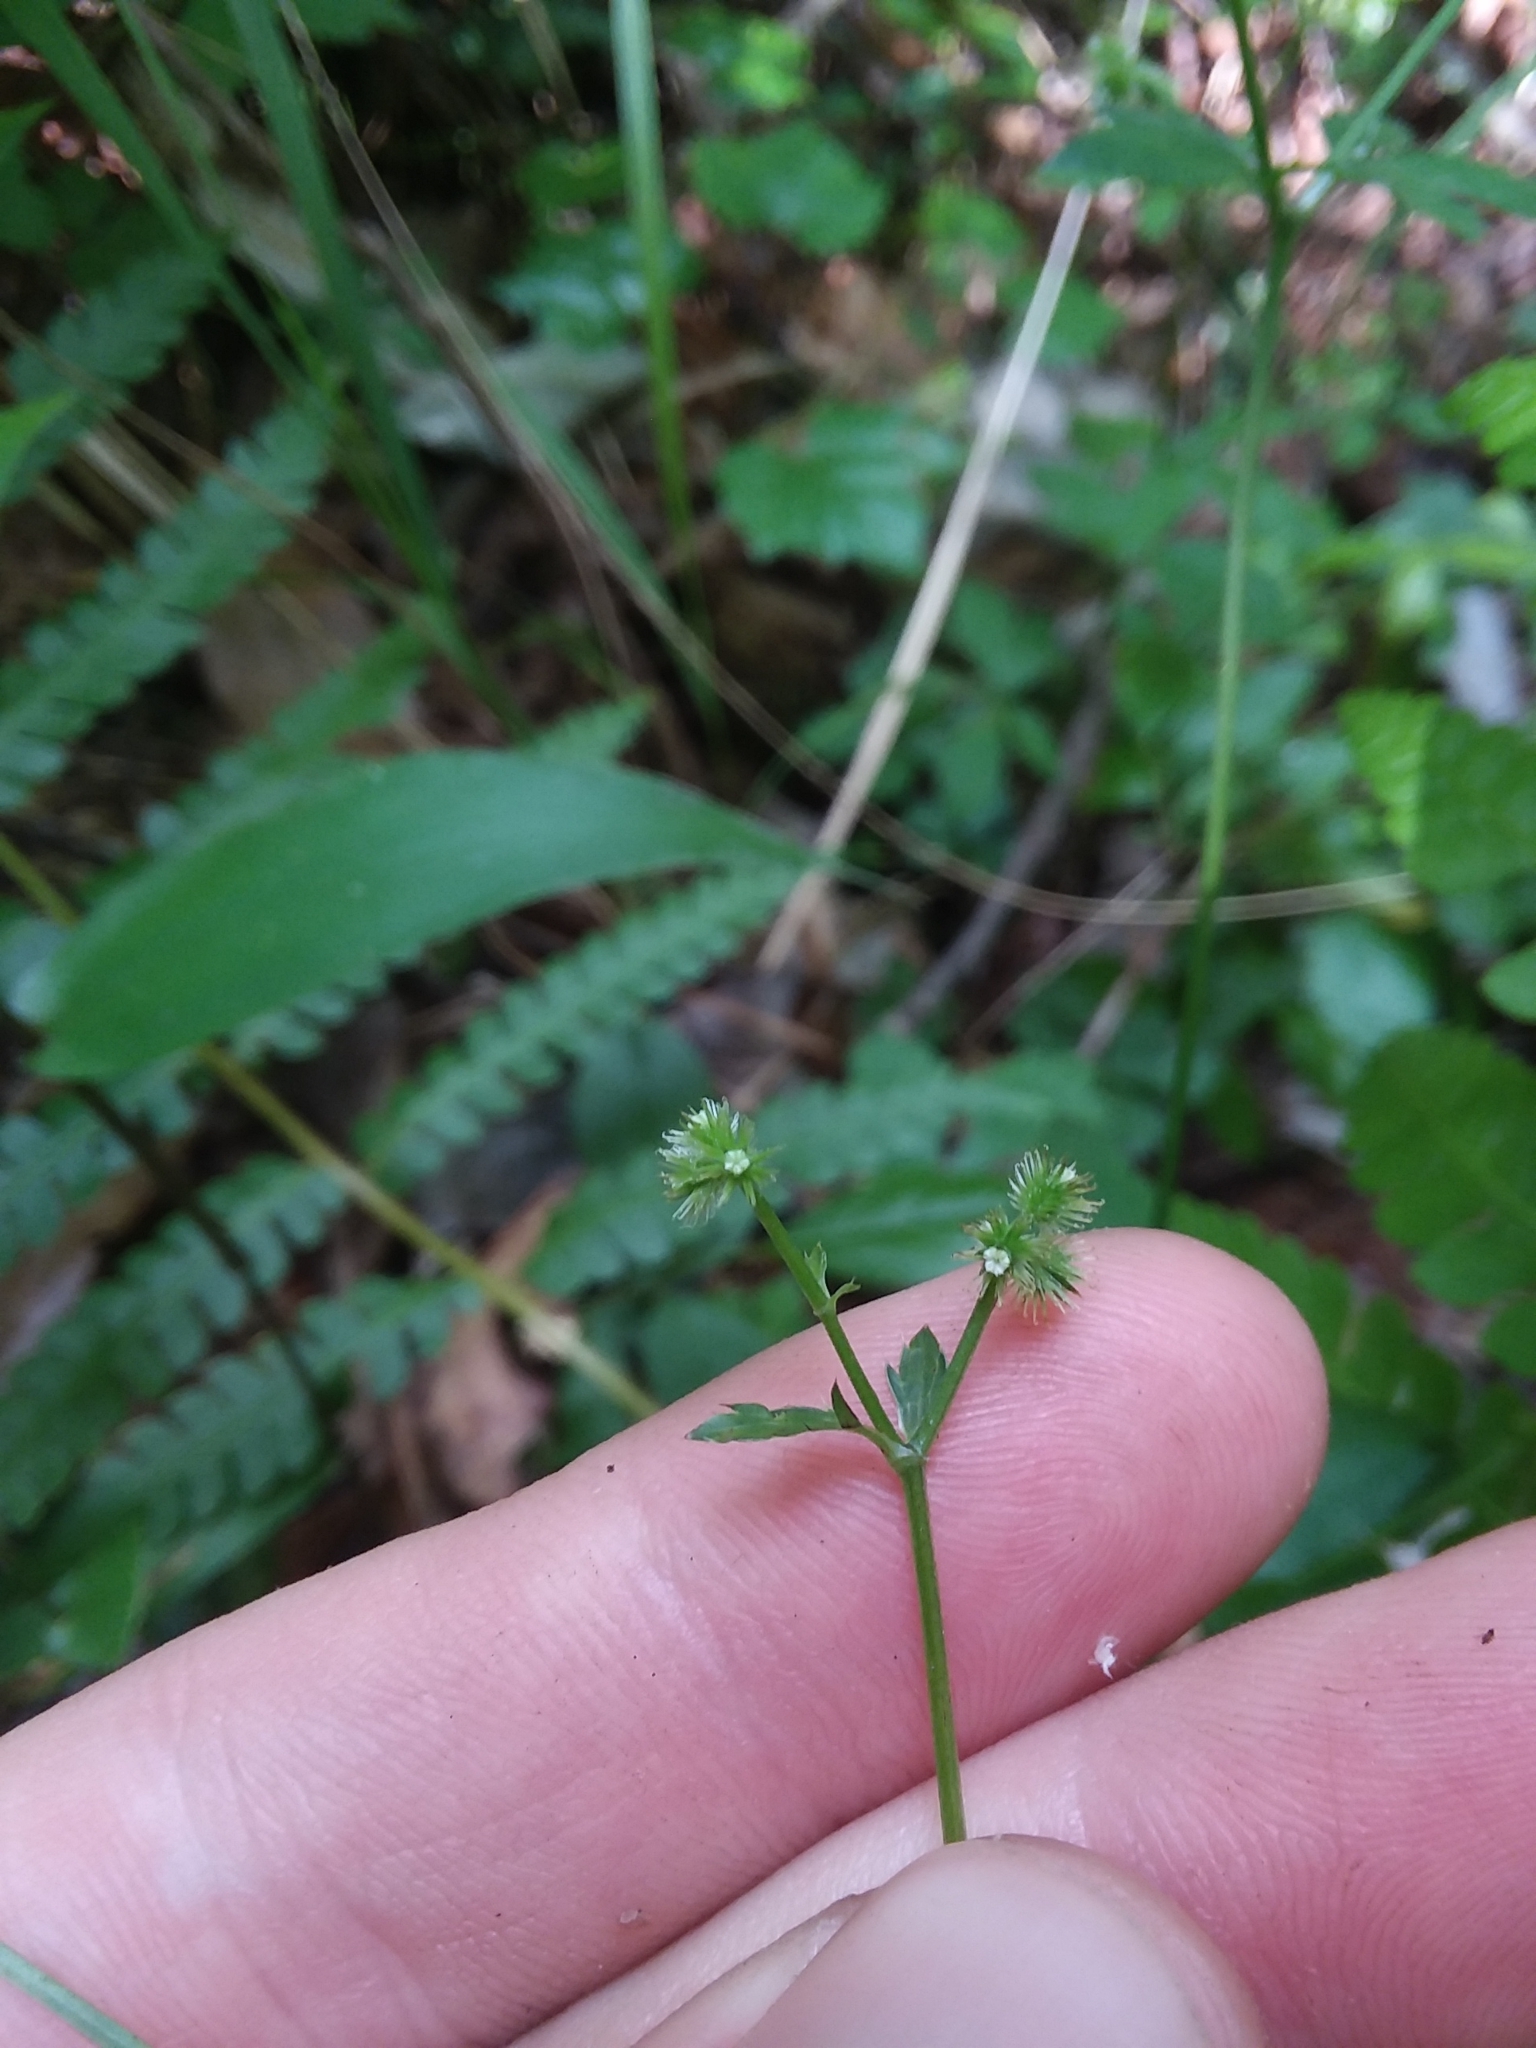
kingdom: Plantae
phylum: Tracheophyta
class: Magnoliopsida
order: Apiales
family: Apiaceae
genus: Sanicula
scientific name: Sanicula canadensis
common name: Canada sanicle
